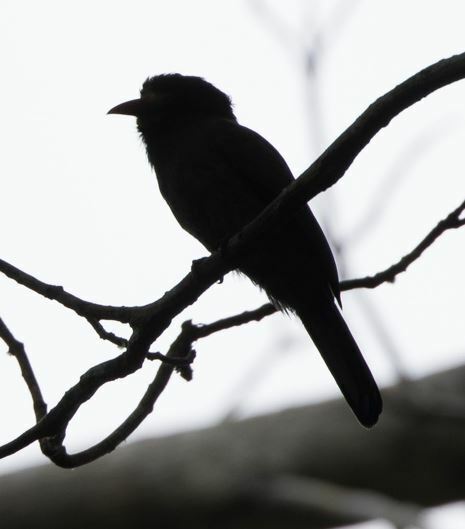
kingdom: Animalia
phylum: Chordata
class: Aves
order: Piciformes
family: Bucconidae
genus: Monasa
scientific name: Monasa morphoeus
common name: White-fronted nunbird
